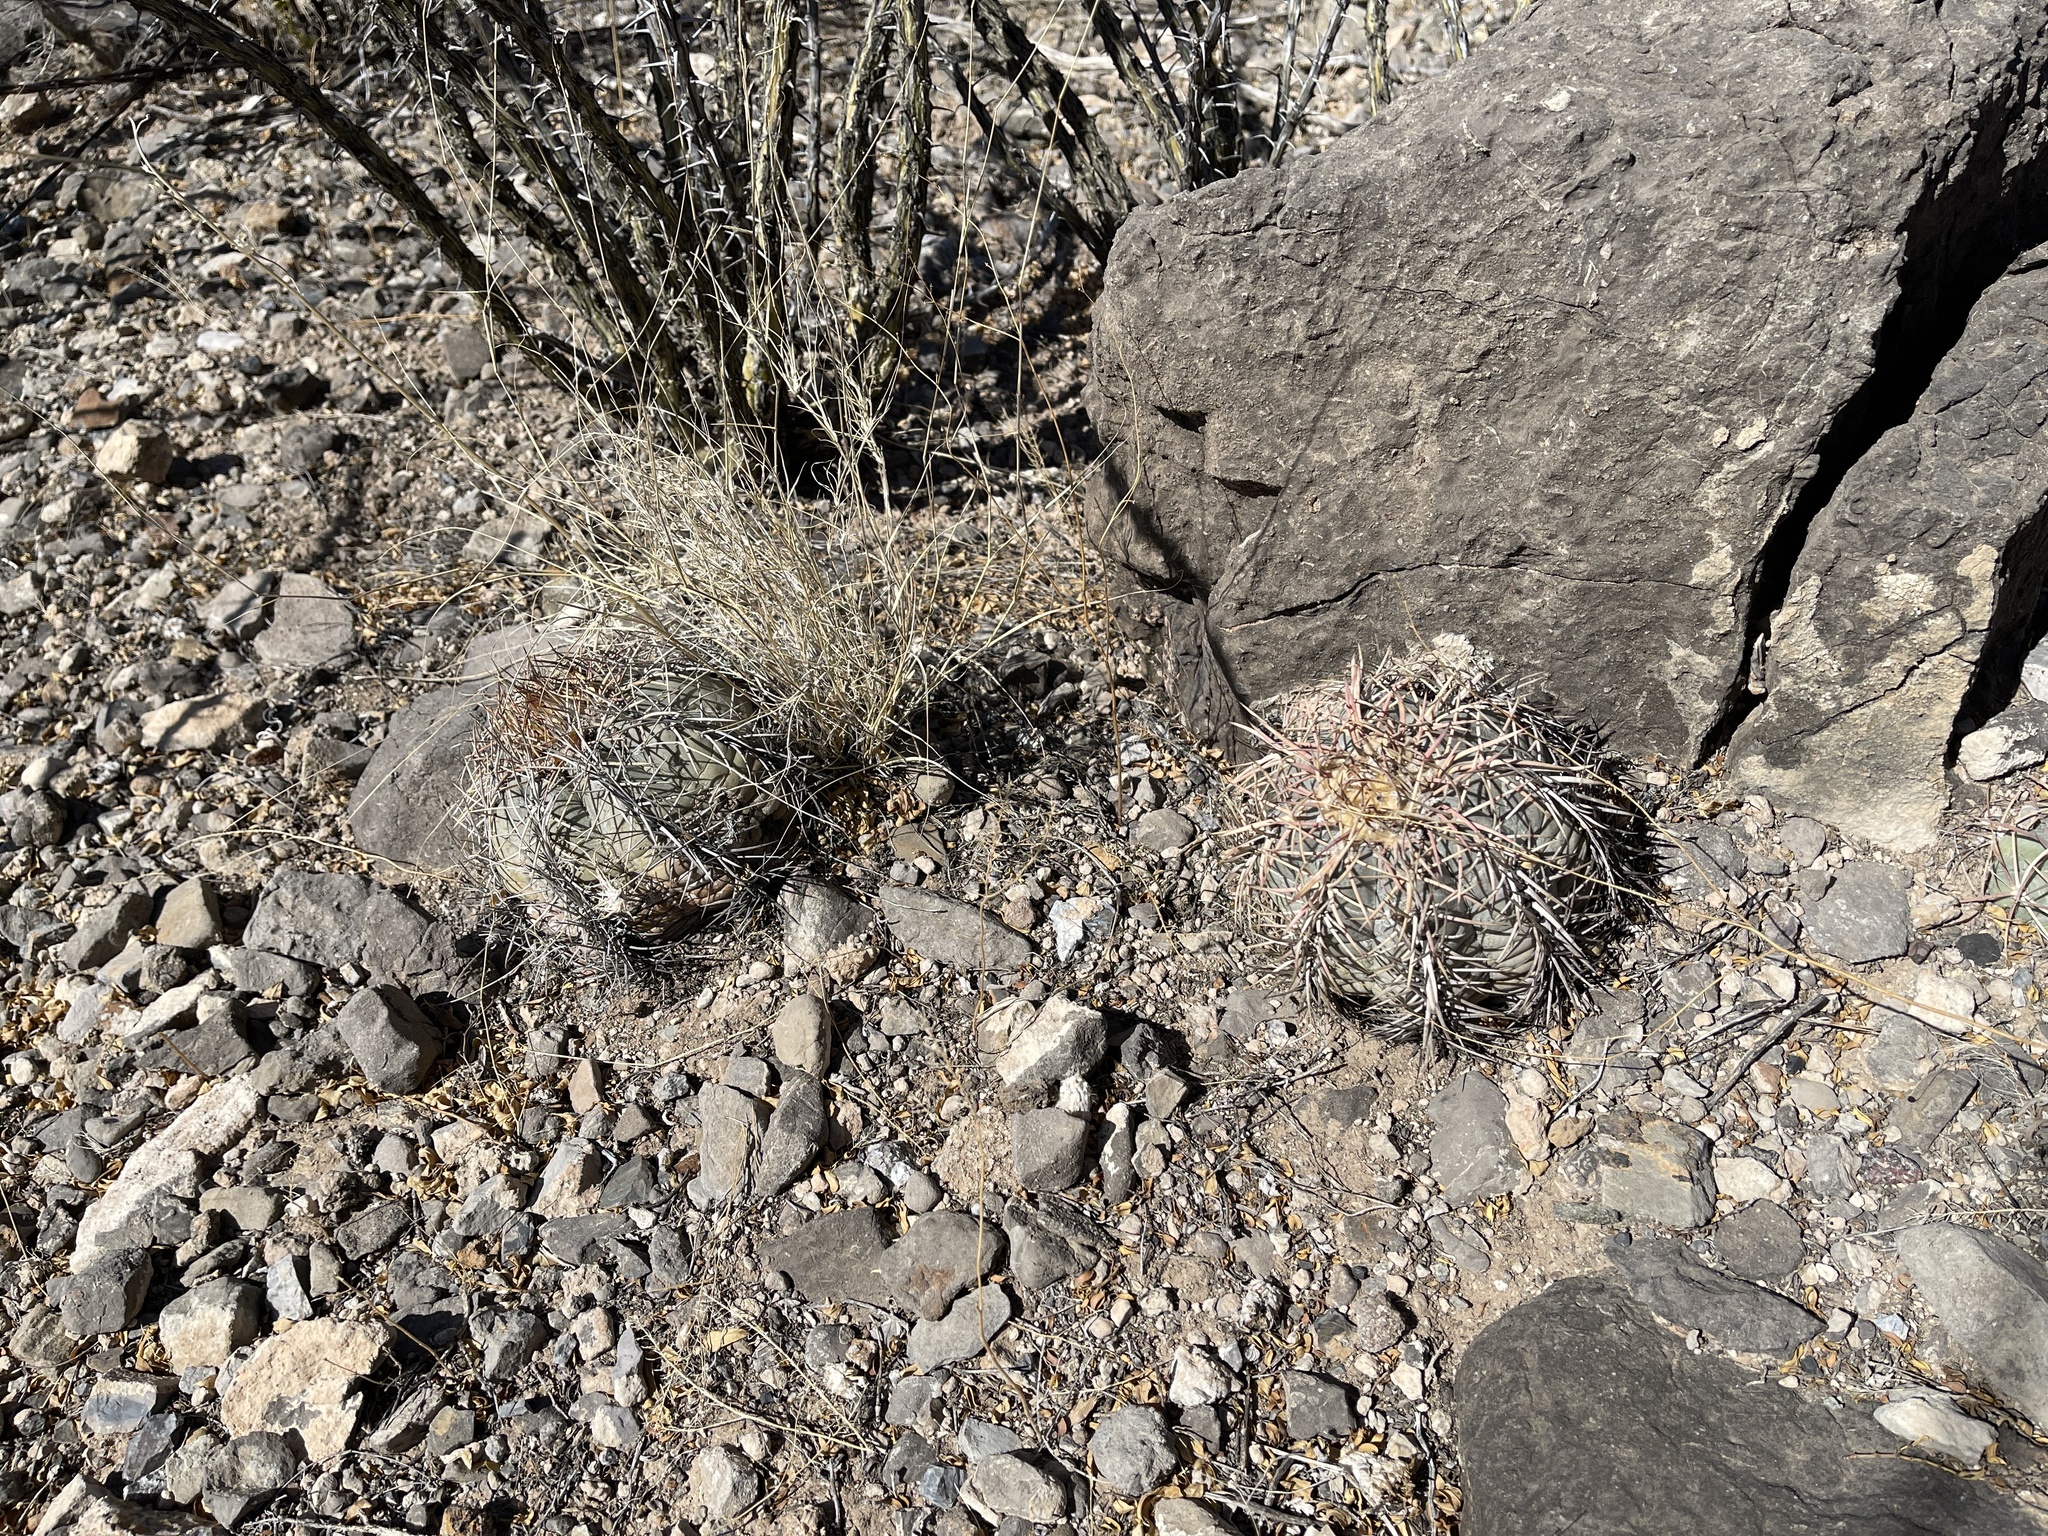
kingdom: Plantae
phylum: Tracheophyta
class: Magnoliopsida
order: Caryophyllales
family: Cactaceae
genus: Echinocactus
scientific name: Echinocactus horizonthalonius
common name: Devilshead
